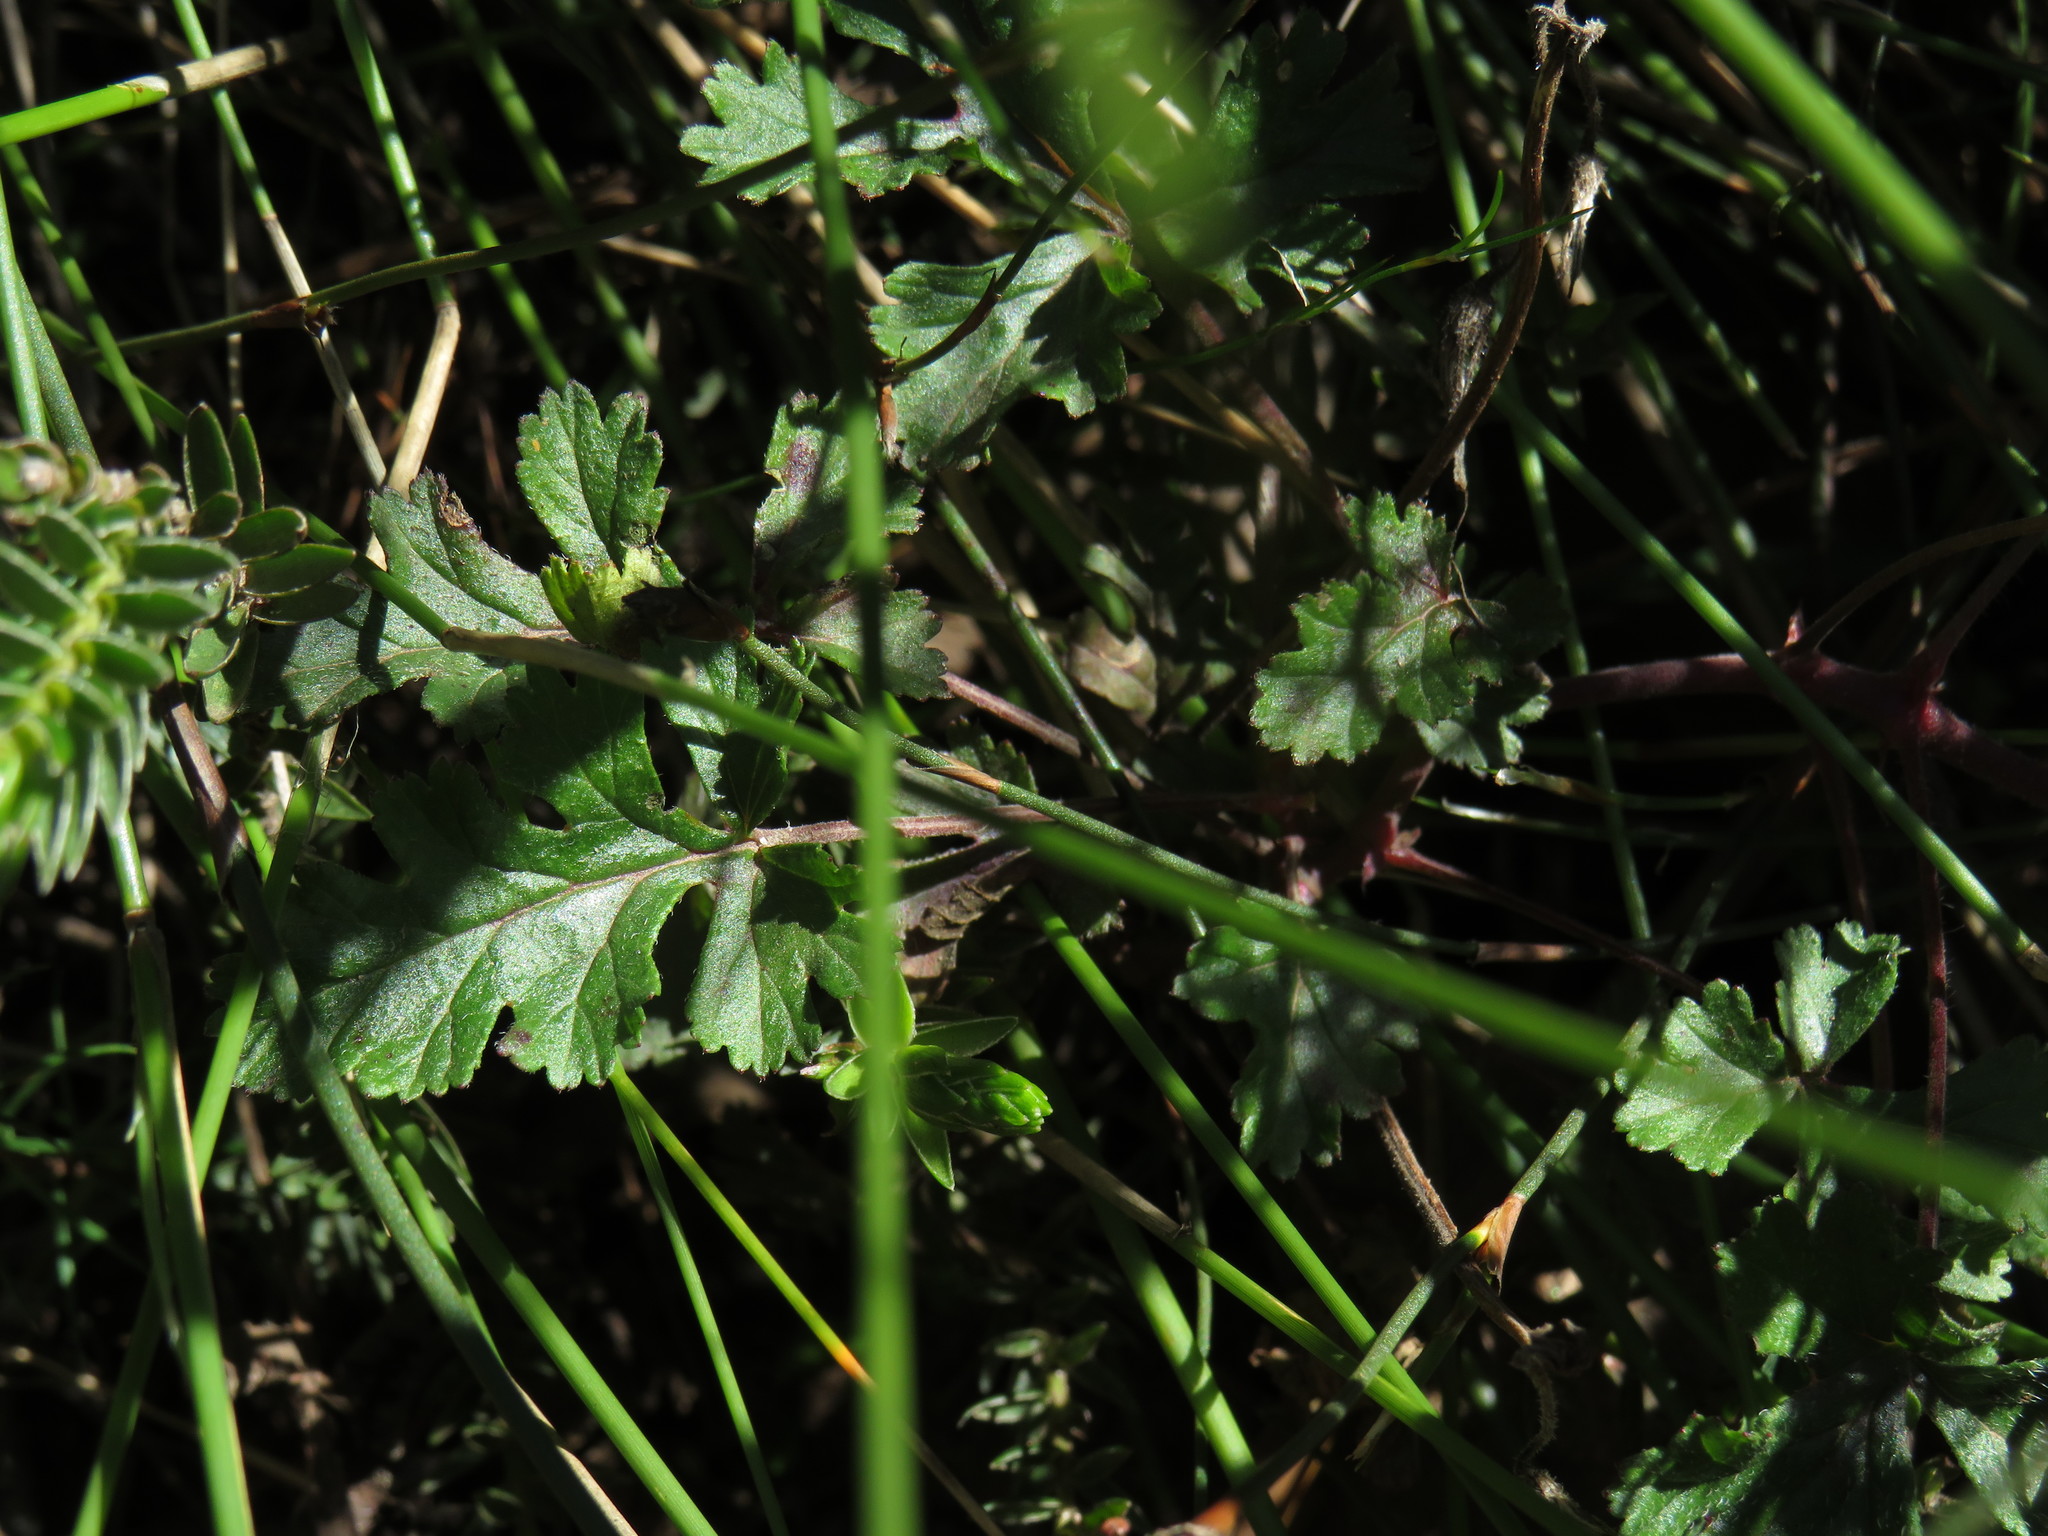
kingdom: Plantae
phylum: Tracheophyta
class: Magnoliopsida
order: Geraniales
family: Geraniaceae
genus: Pelargonium
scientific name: Pelargonium longicaule
